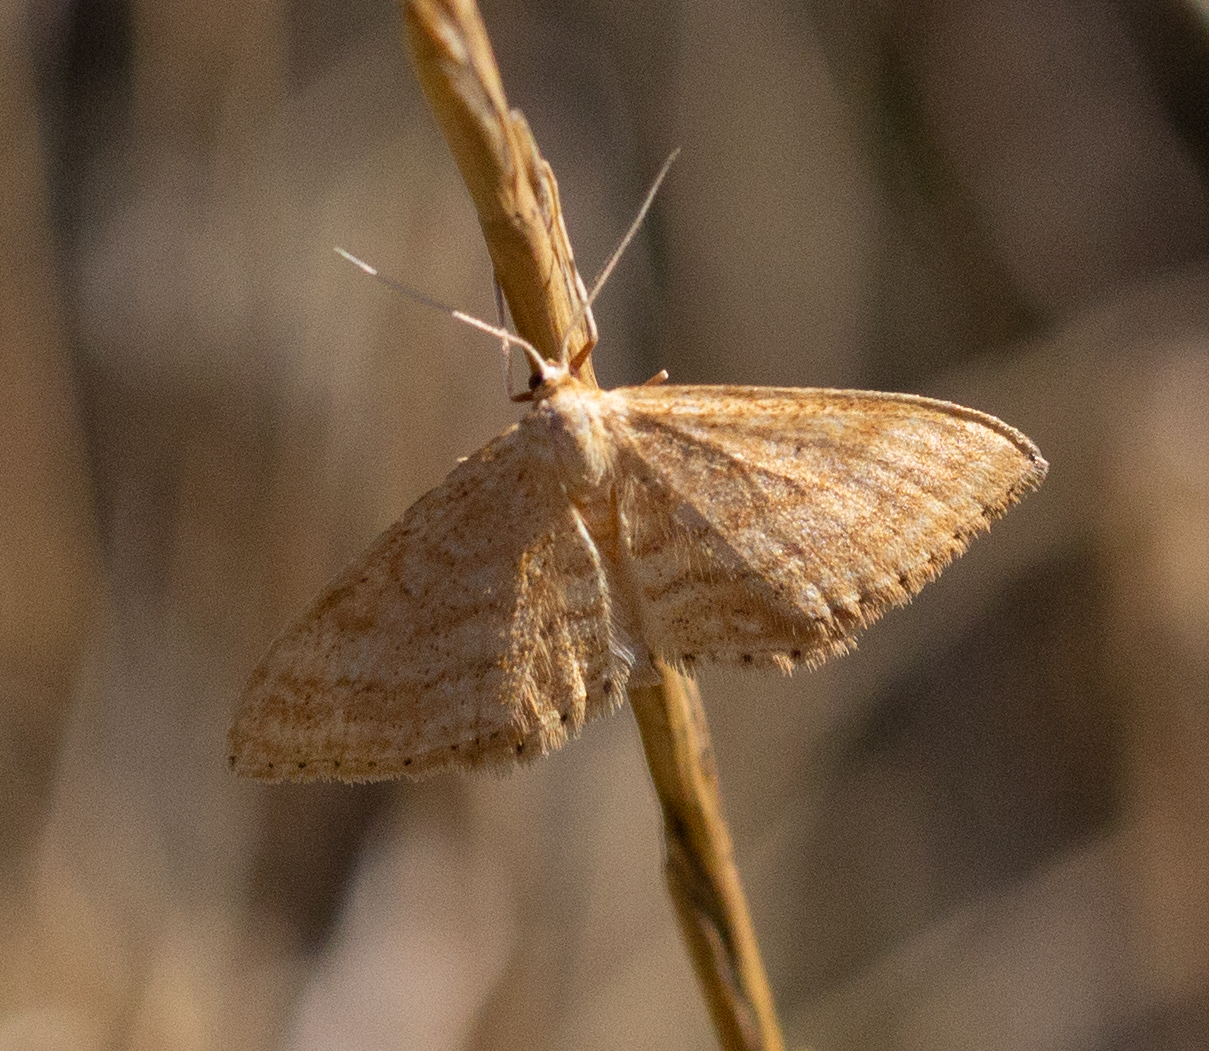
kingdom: Animalia
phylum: Arthropoda
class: Insecta
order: Lepidoptera
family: Geometridae
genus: Idaea
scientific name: Idaea ochrata
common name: Bright wave
